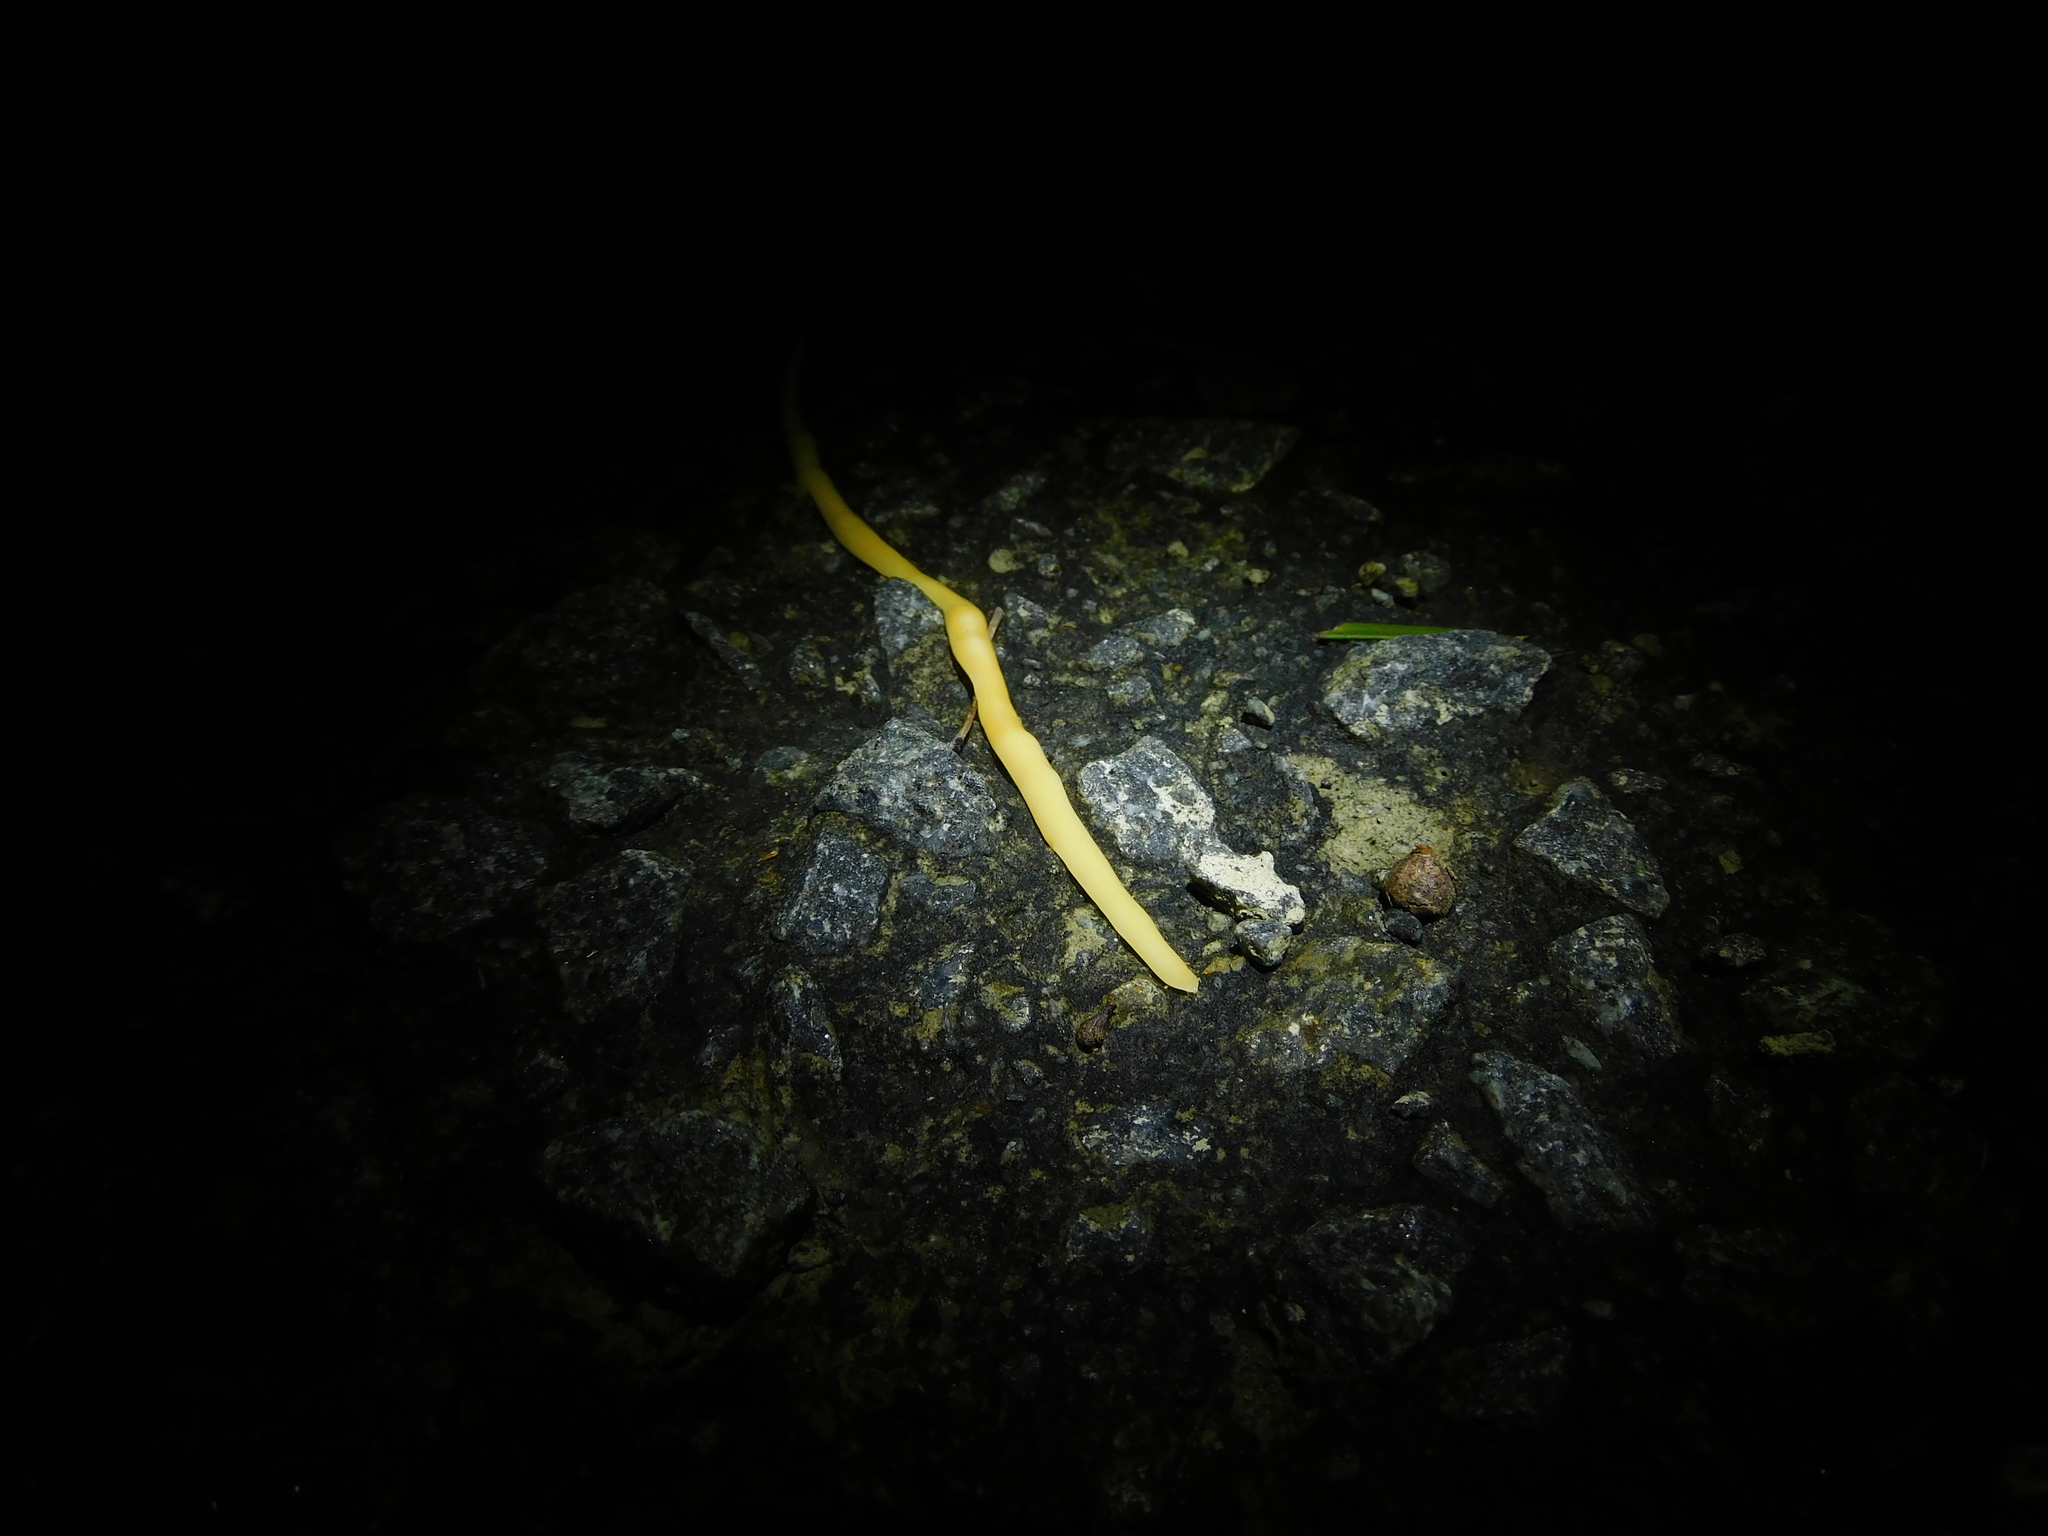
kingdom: Animalia
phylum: Platyhelminthes
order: Tricladida
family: Geoplanidae
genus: Fletchamia
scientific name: Fletchamia sugdeni
